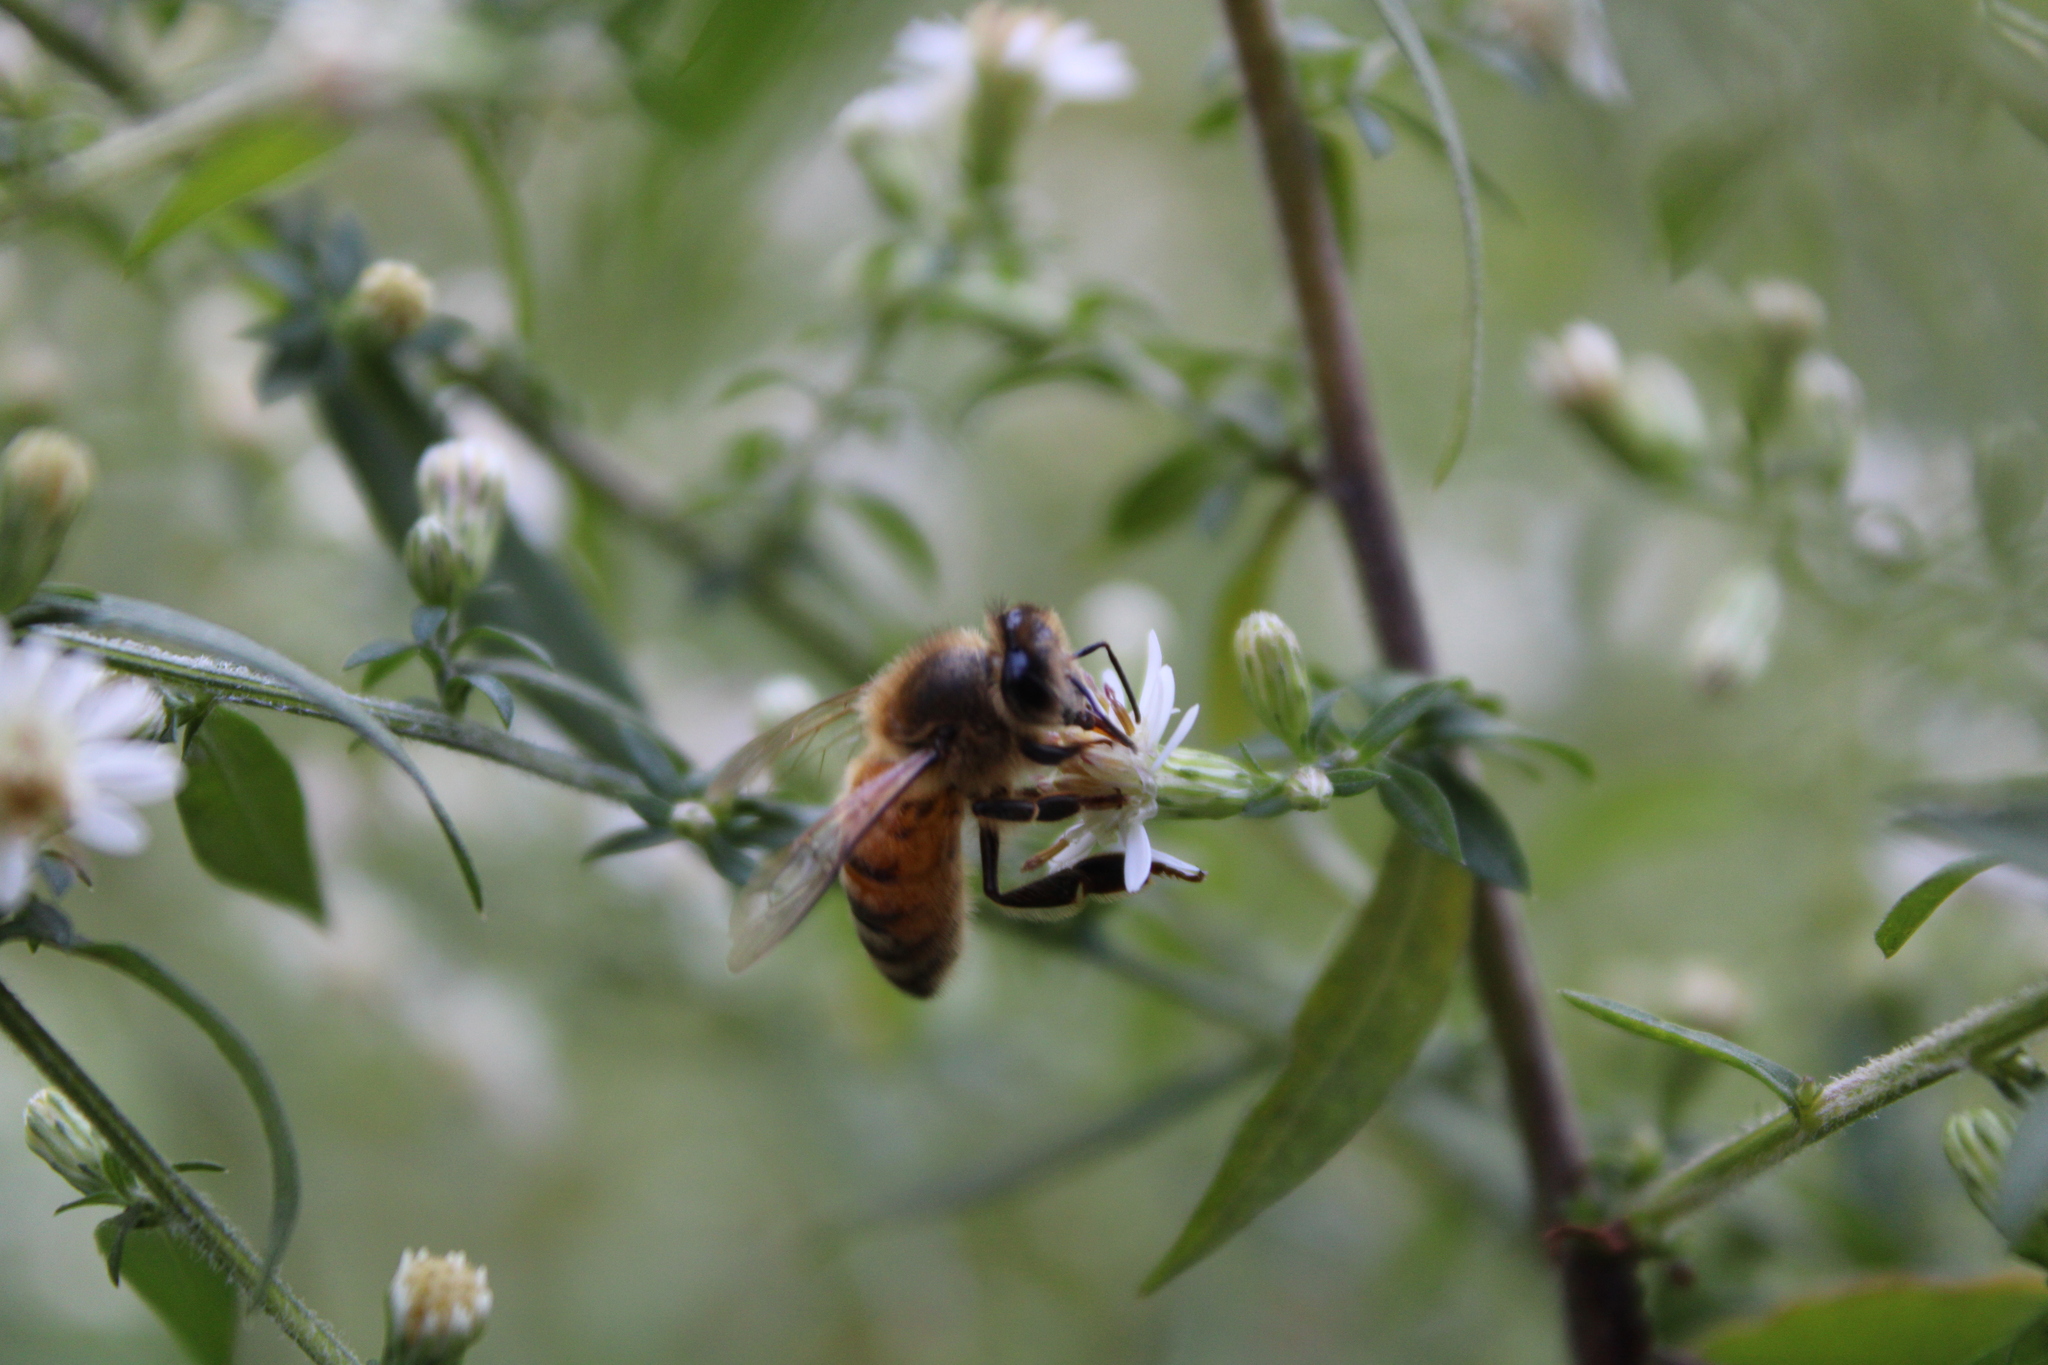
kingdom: Animalia
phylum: Arthropoda
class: Insecta
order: Hymenoptera
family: Apidae
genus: Apis
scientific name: Apis mellifera
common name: Honey bee
